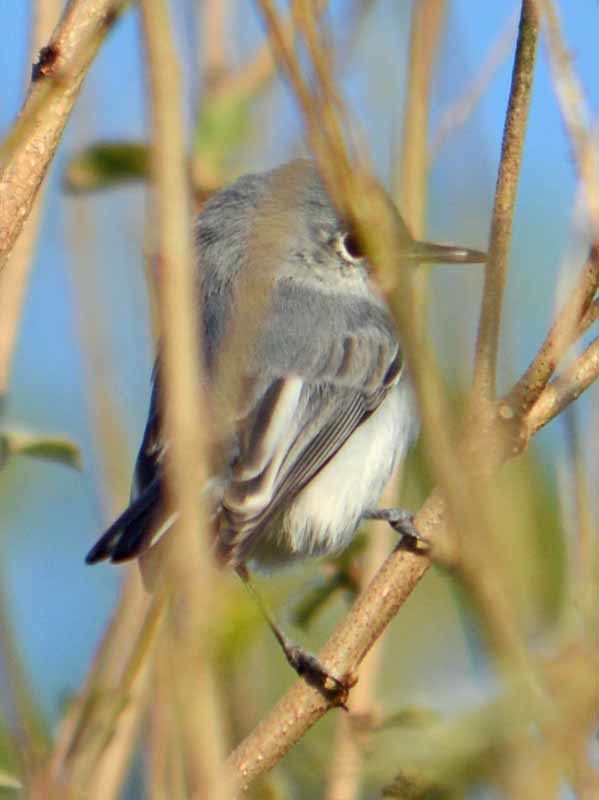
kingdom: Animalia
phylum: Chordata
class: Aves
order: Passeriformes
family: Polioptilidae
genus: Polioptila
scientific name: Polioptila caerulea
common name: Blue-gray gnatcatcher
